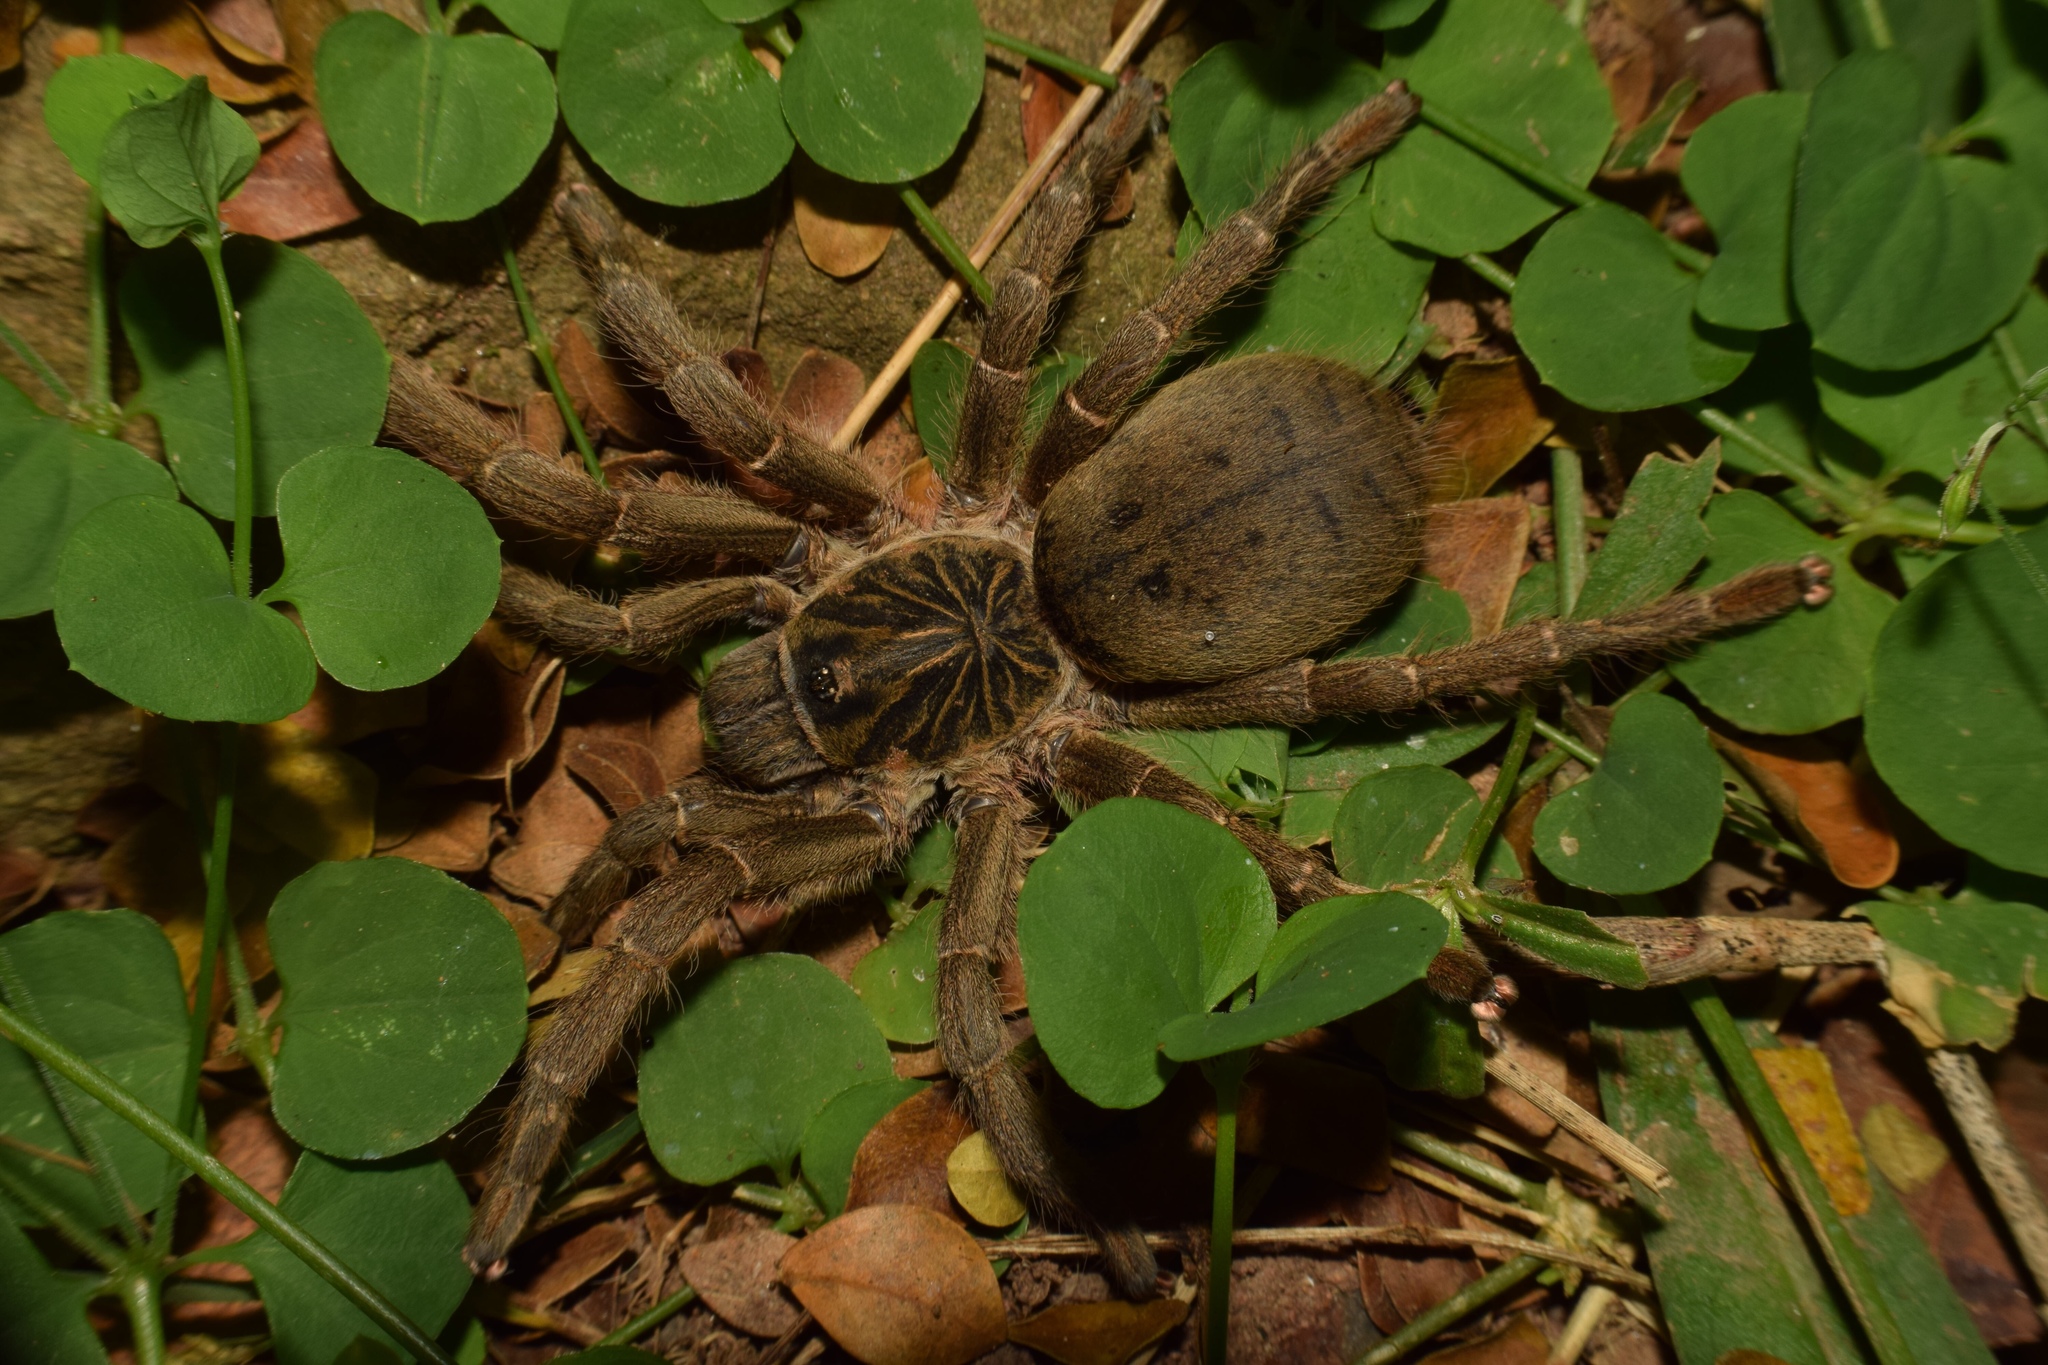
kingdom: Animalia
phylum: Arthropoda
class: Arachnida
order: Araneae
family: Theraphosidae
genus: Harpactira
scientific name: Harpactira curator
